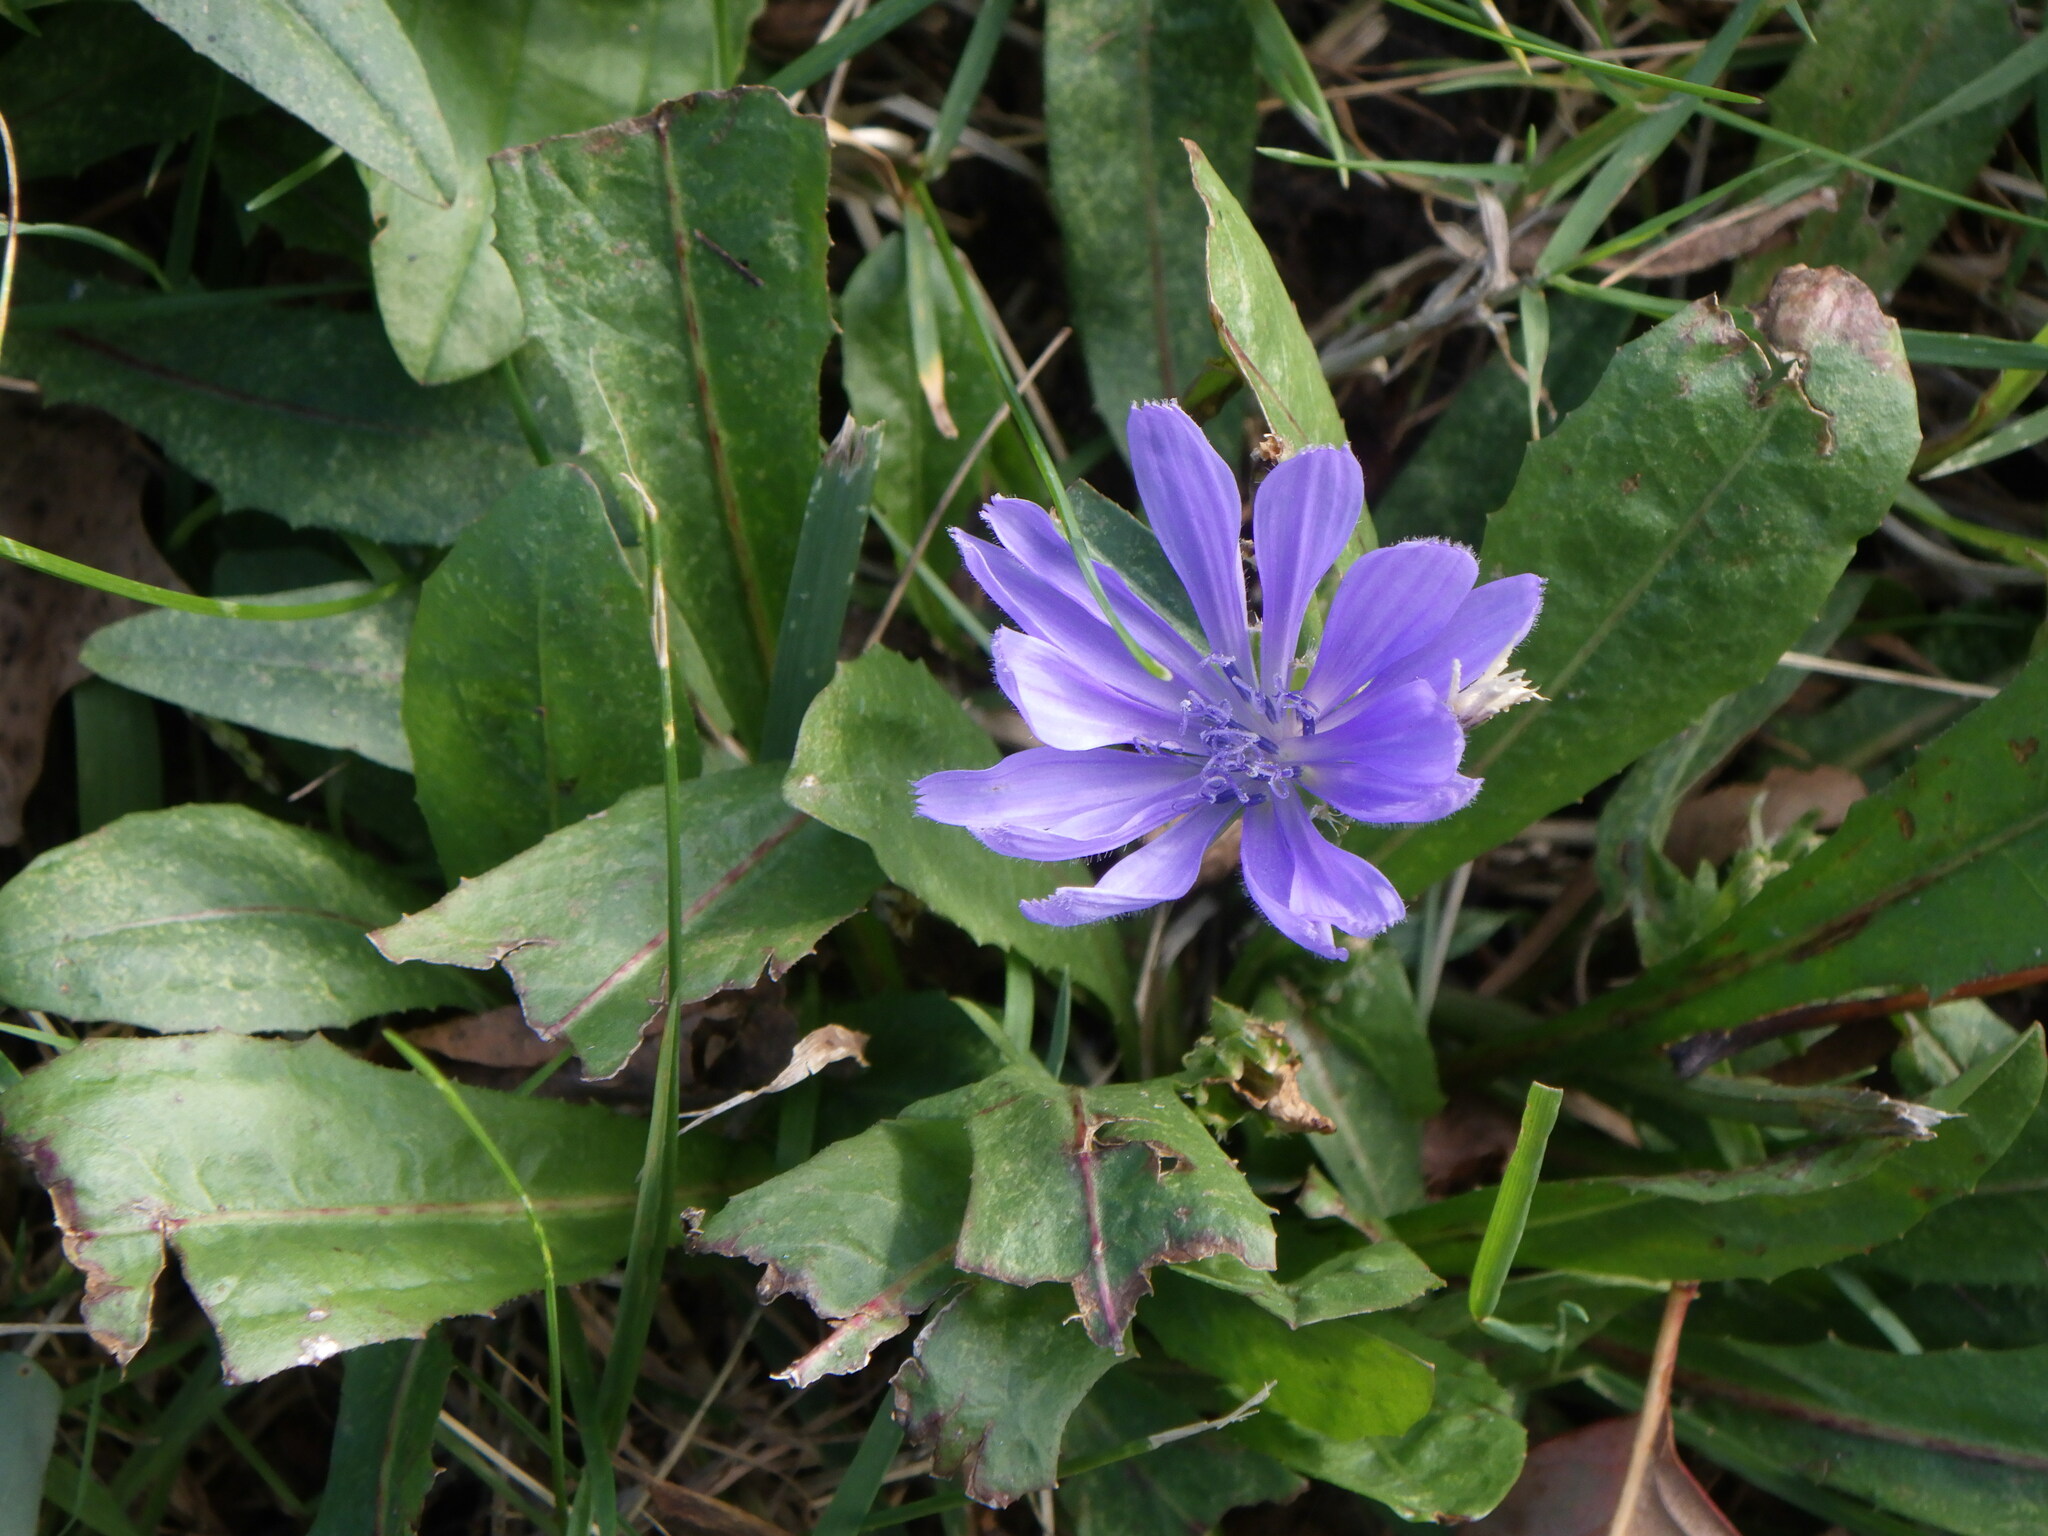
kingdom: Plantae
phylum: Tracheophyta
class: Magnoliopsida
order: Asterales
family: Asteraceae
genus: Cichorium
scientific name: Cichorium intybus
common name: Chicory
